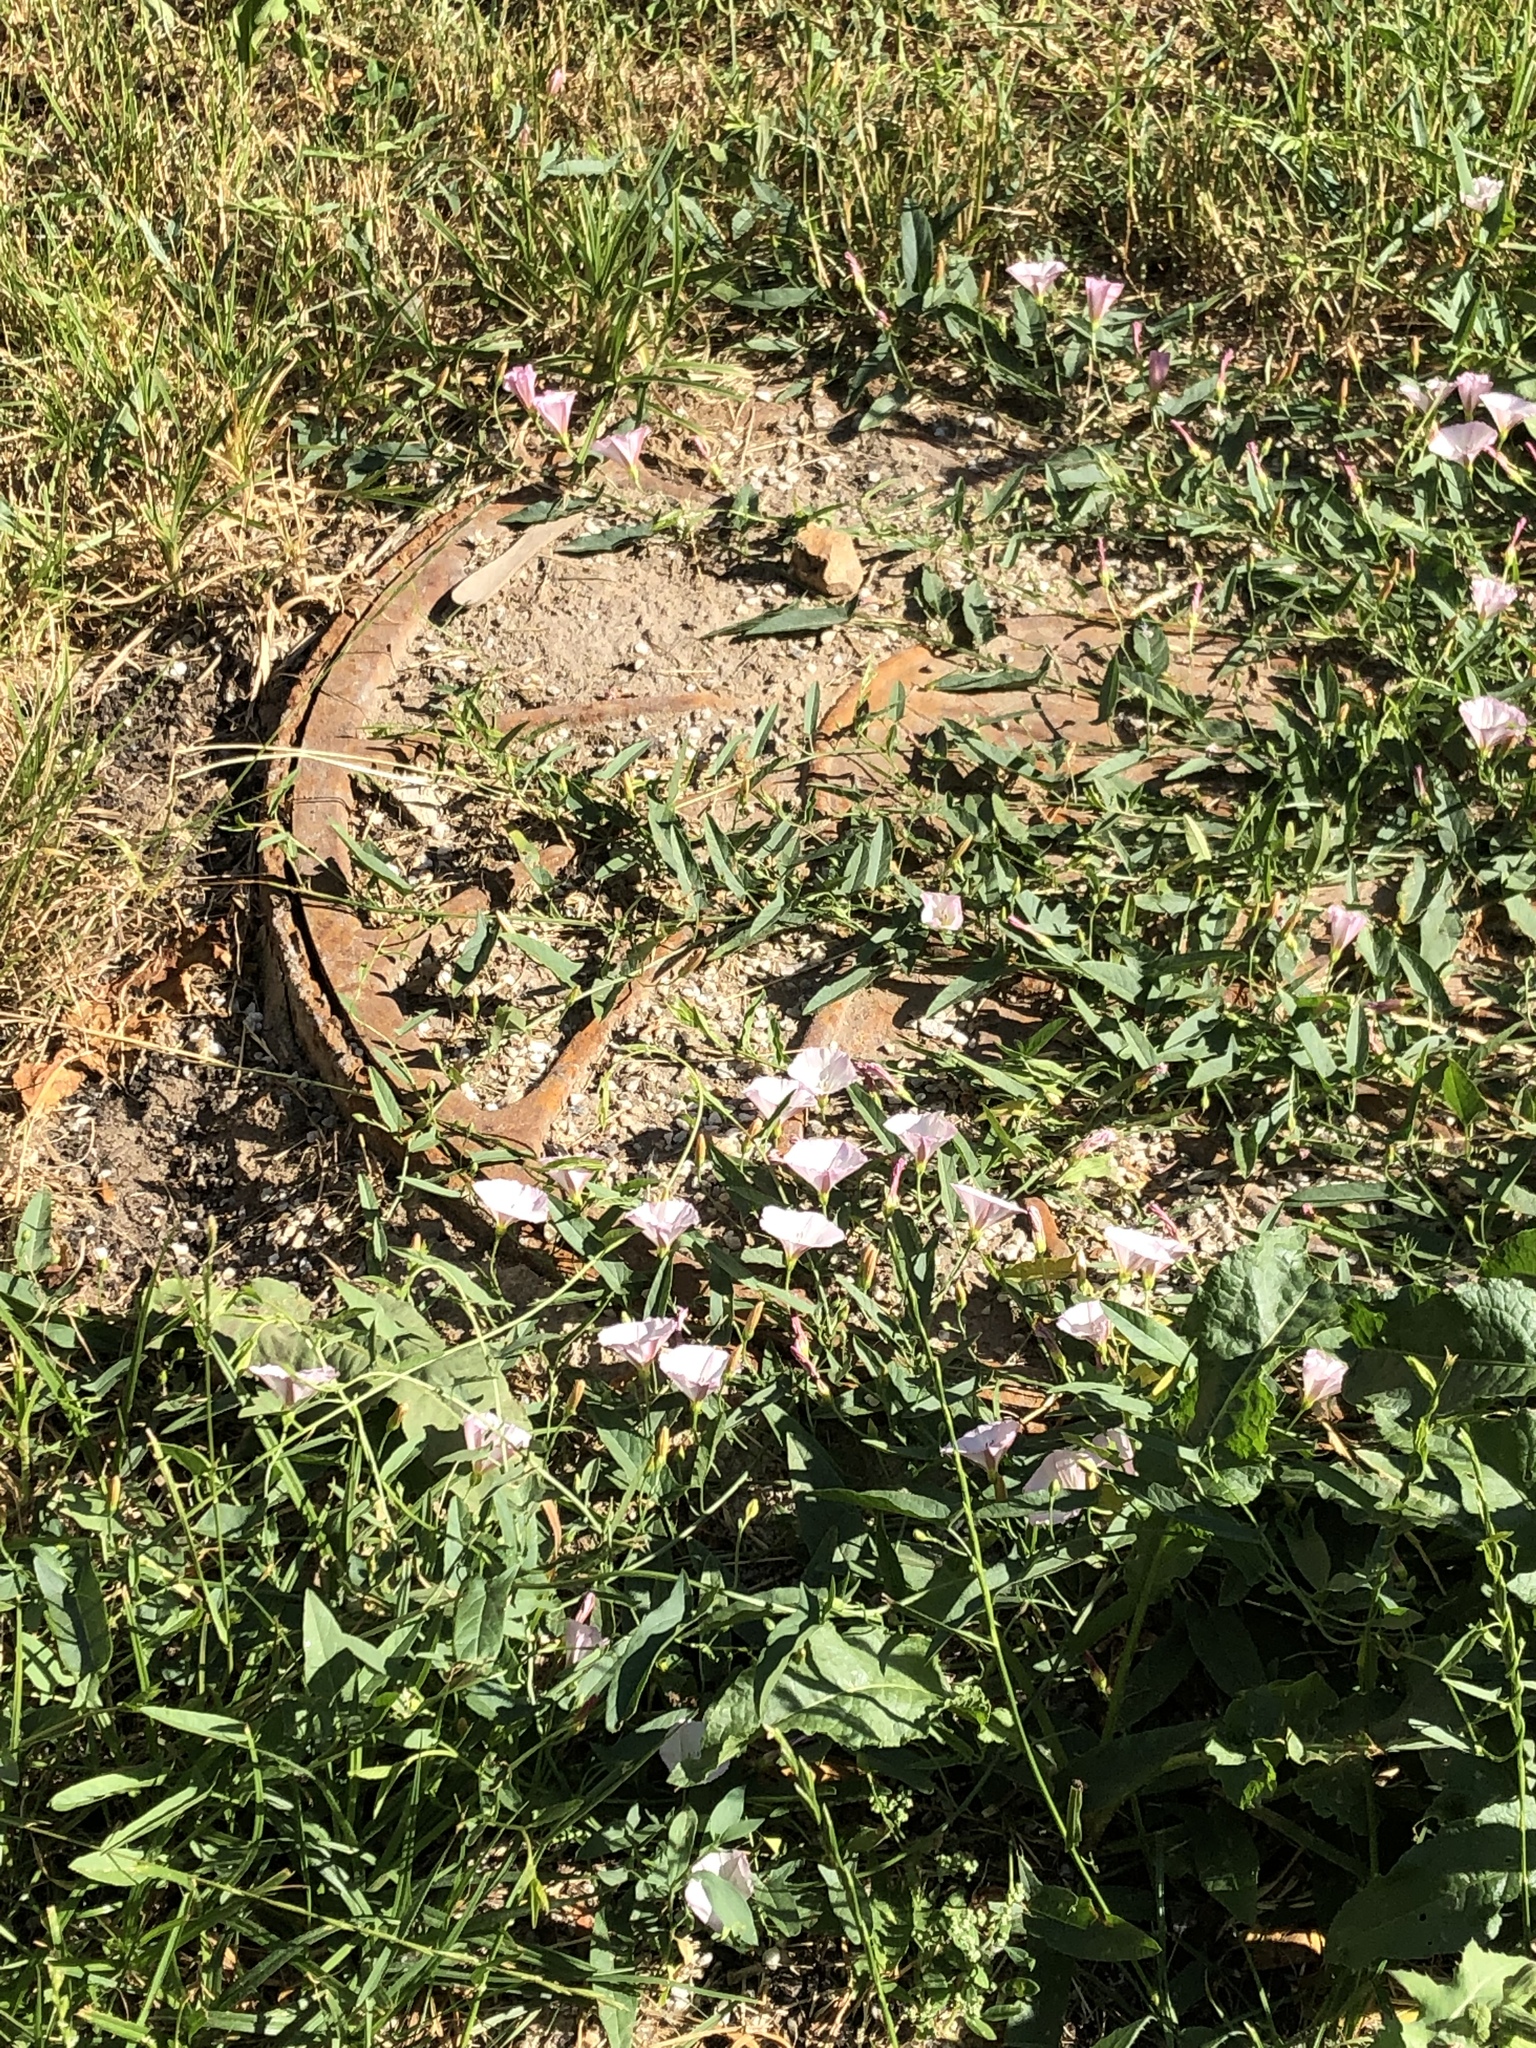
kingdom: Plantae
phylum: Tracheophyta
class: Magnoliopsida
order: Solanales
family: Convolvulaceae
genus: Convolvulus
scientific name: Convolvulus arvensis
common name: Field bindweed
